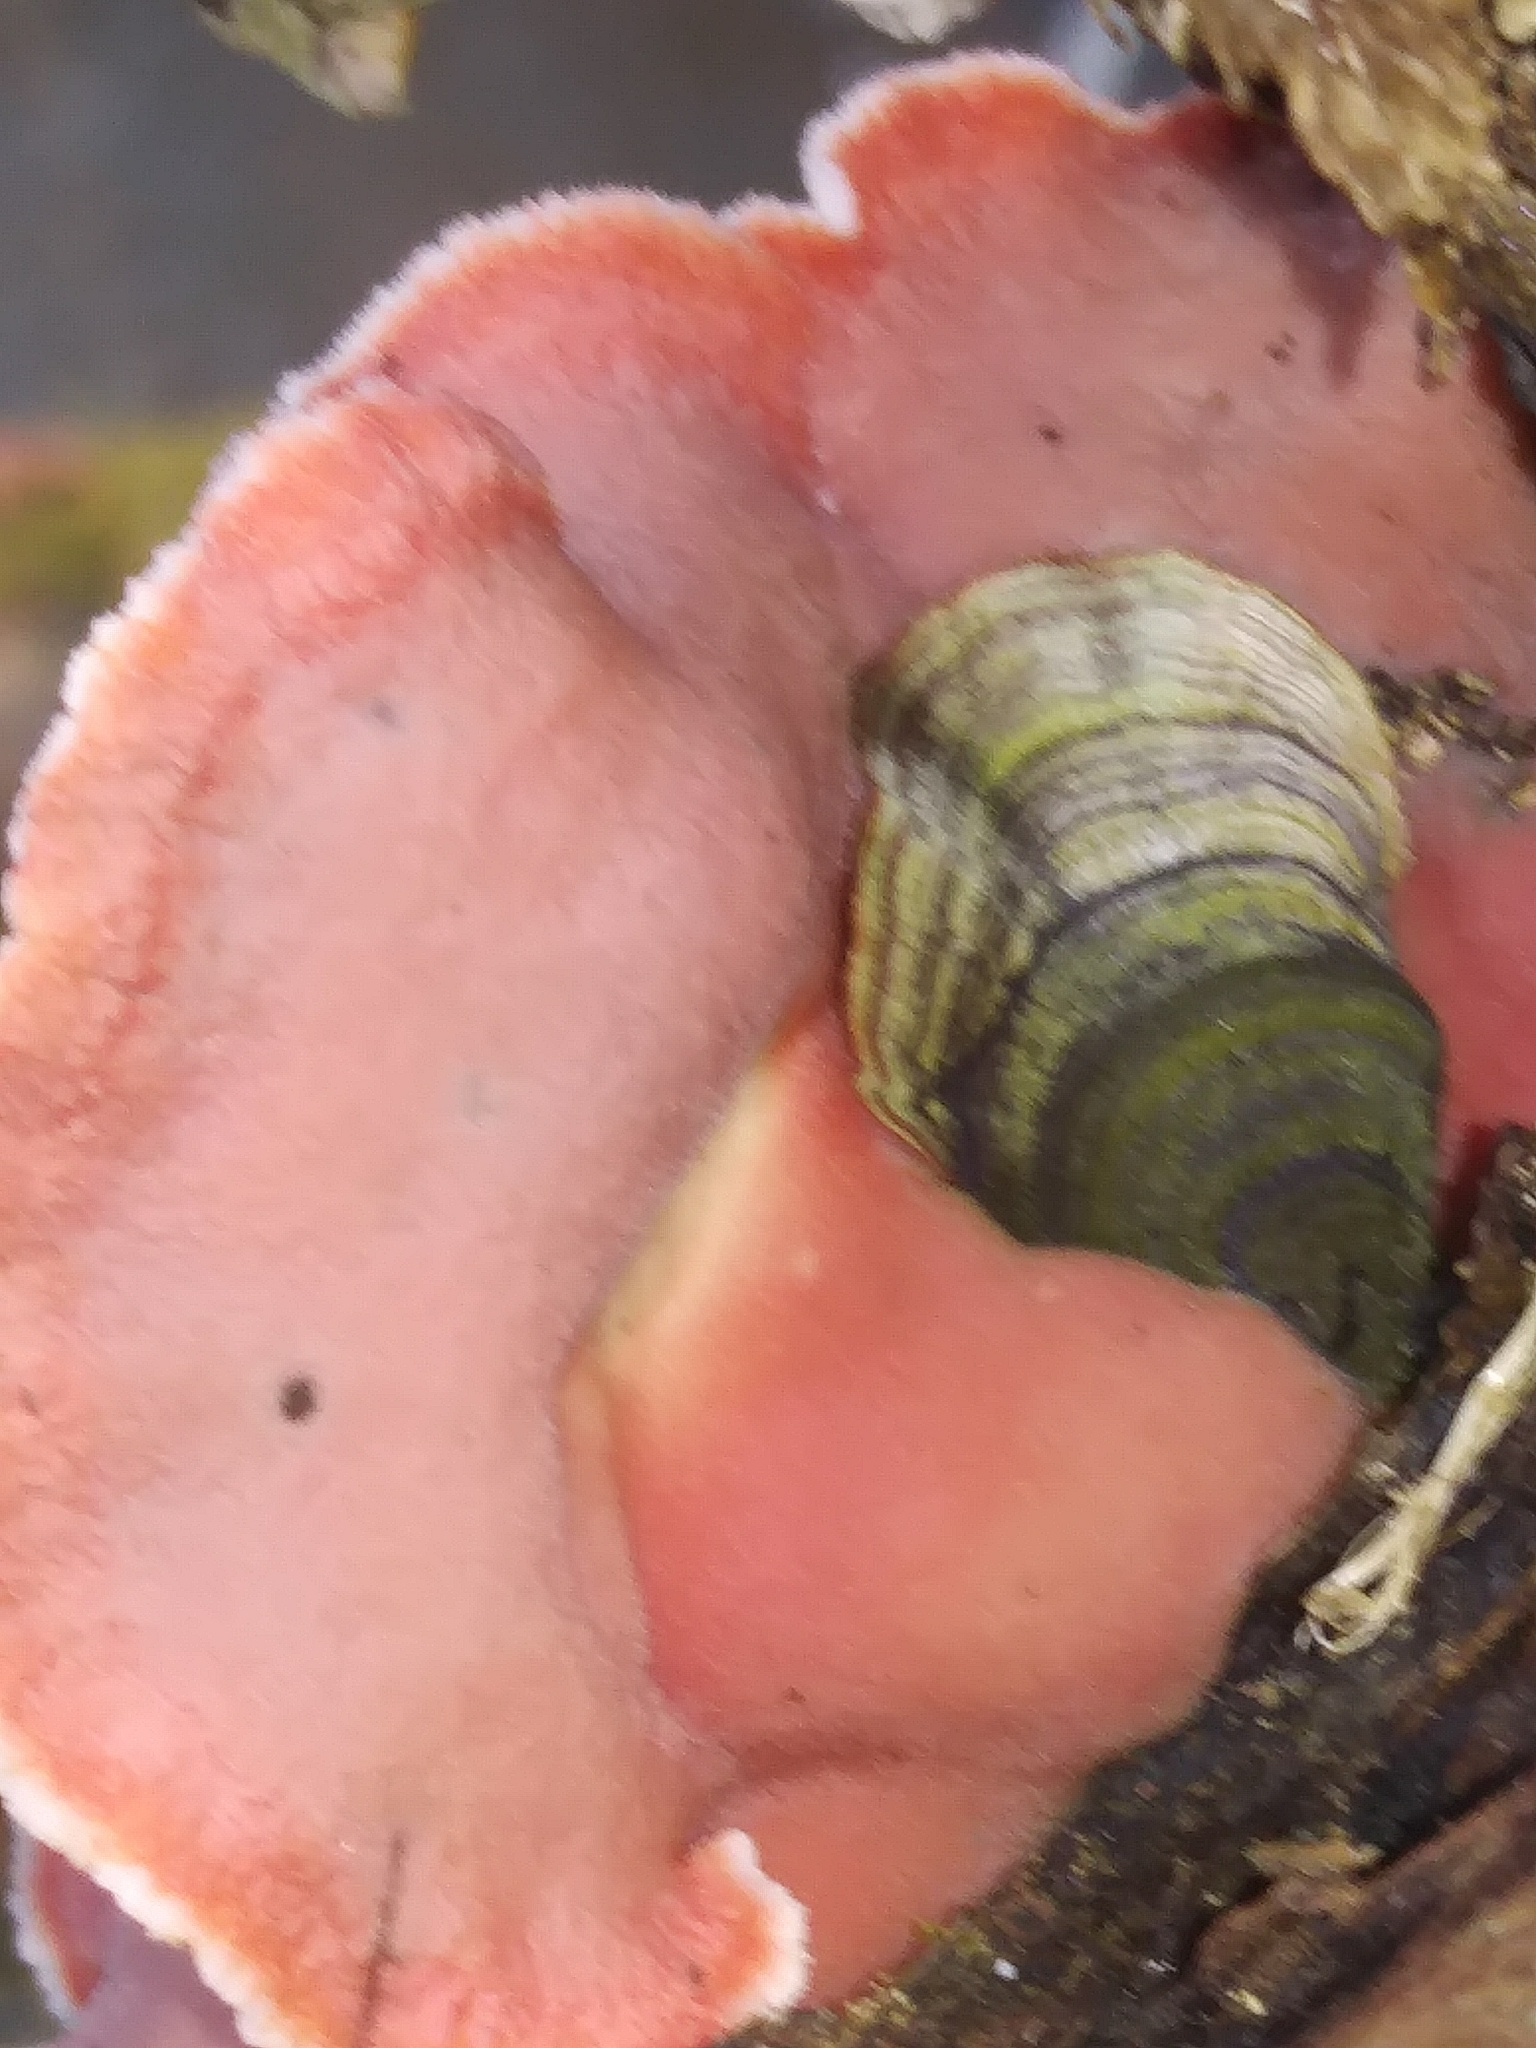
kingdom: Fungi
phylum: Basidiomycota
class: Agaricomycetes
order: Polyporales
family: Irpicaceae
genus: Byssomerulius
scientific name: Byssomerulius incarnatus
